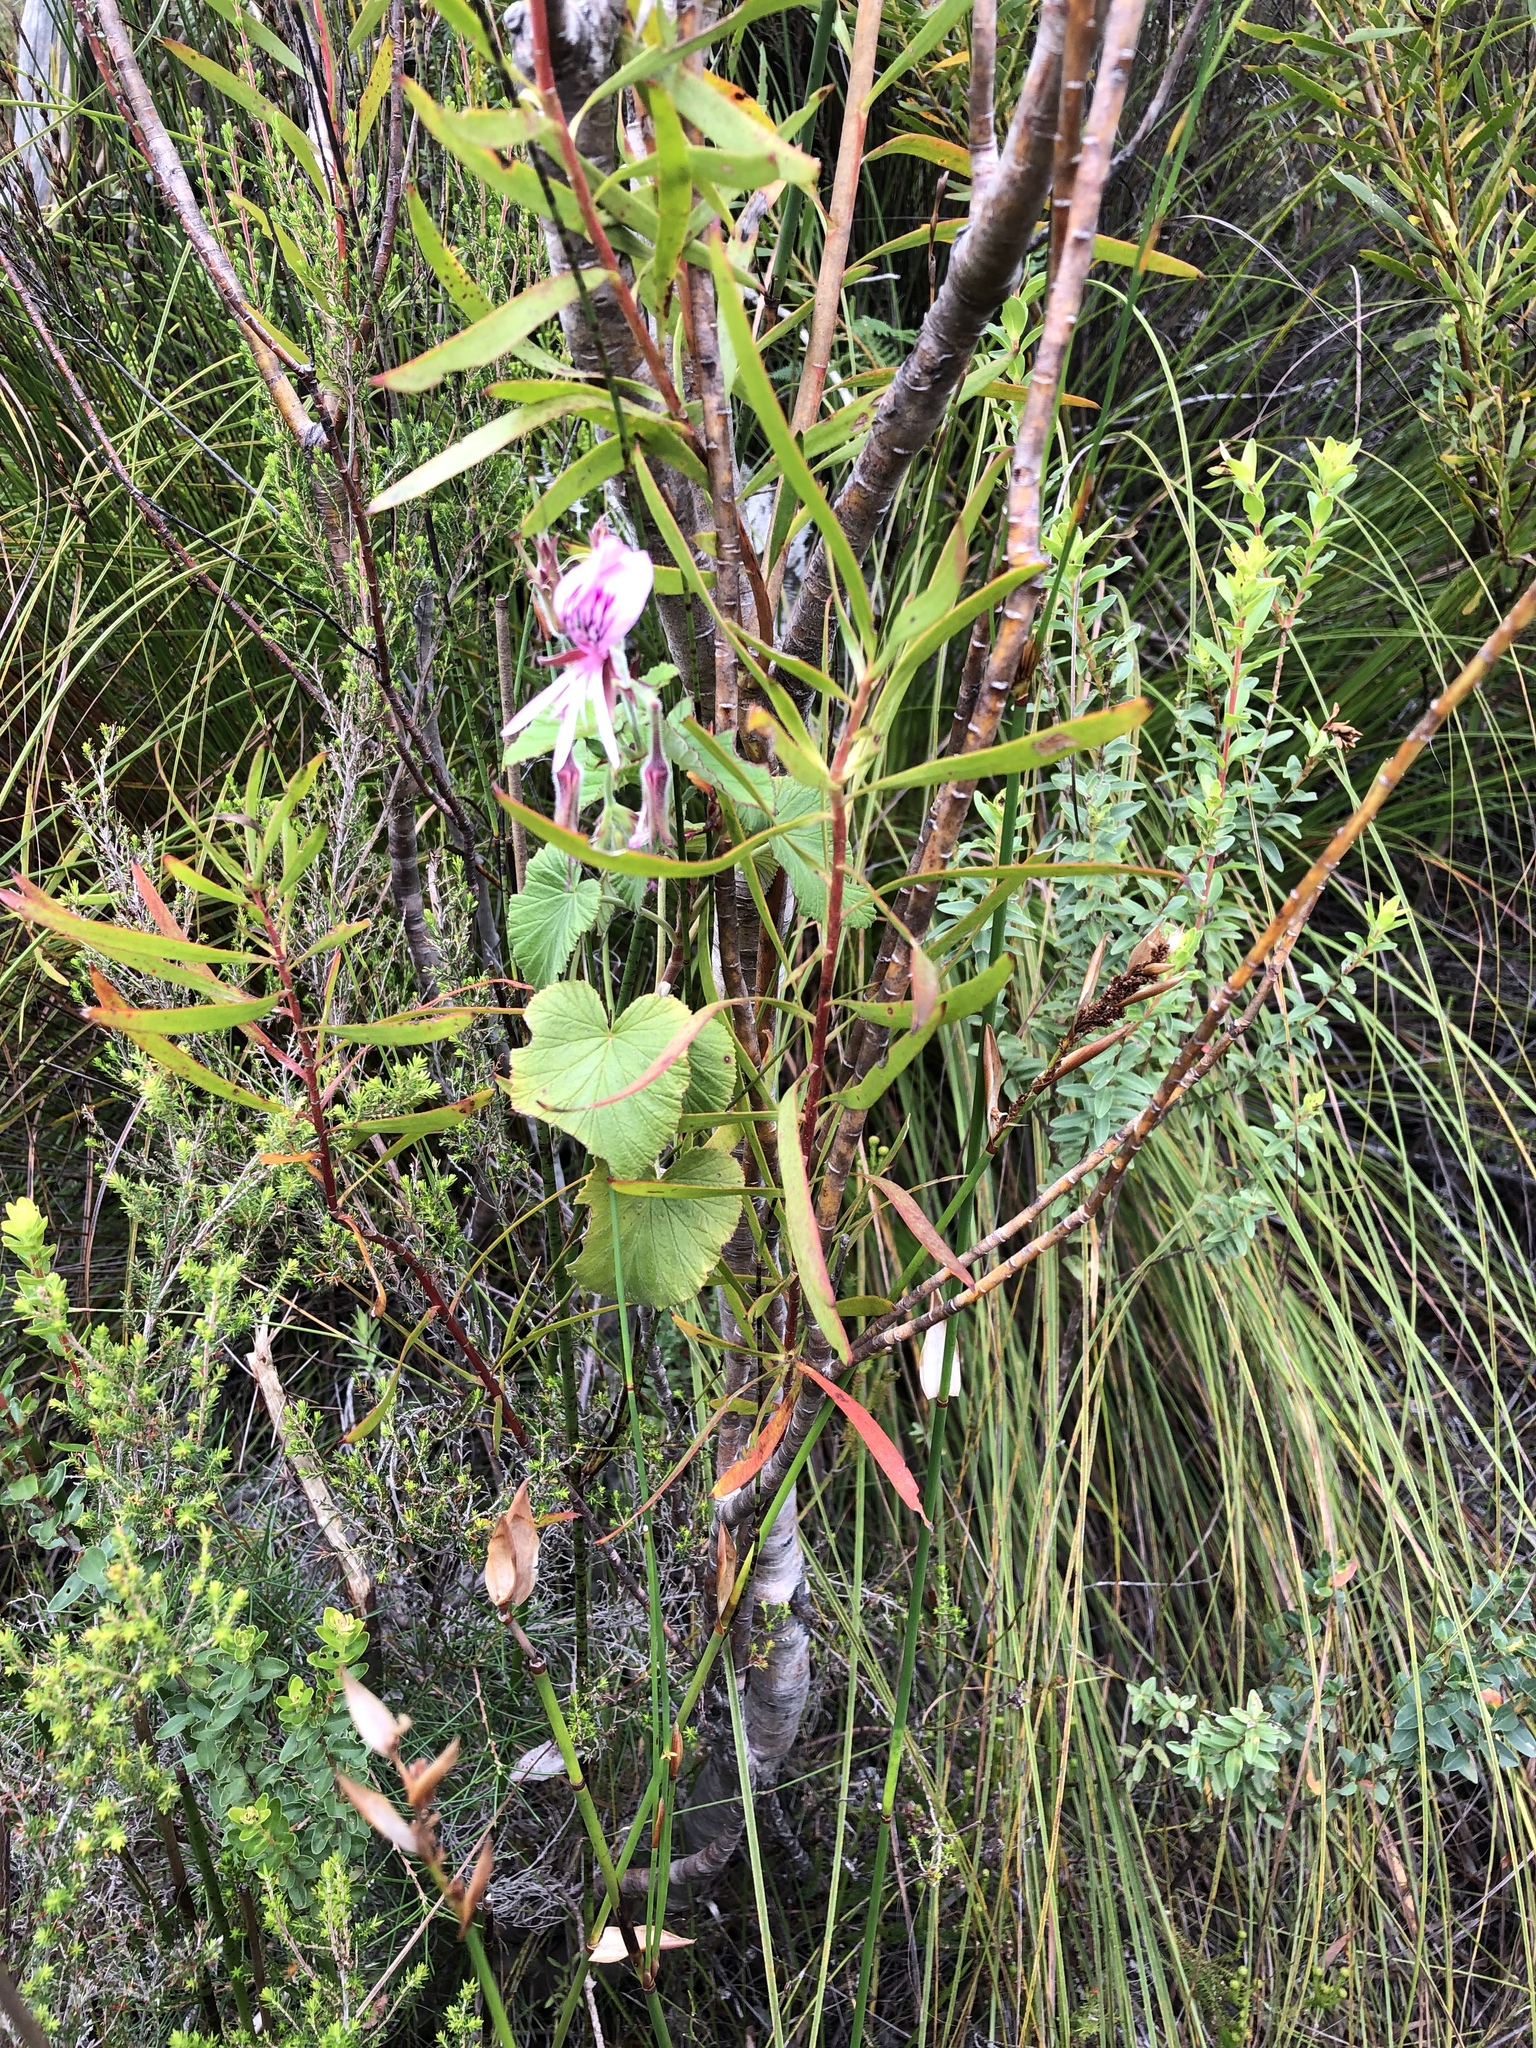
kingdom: Plantae
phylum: Tracheophyta
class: Magnoliopsida
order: Geraniales
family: Geraniaceae
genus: Pelargonium
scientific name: Pelargonium cordifolium
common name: Heart-leaf pelargonium
